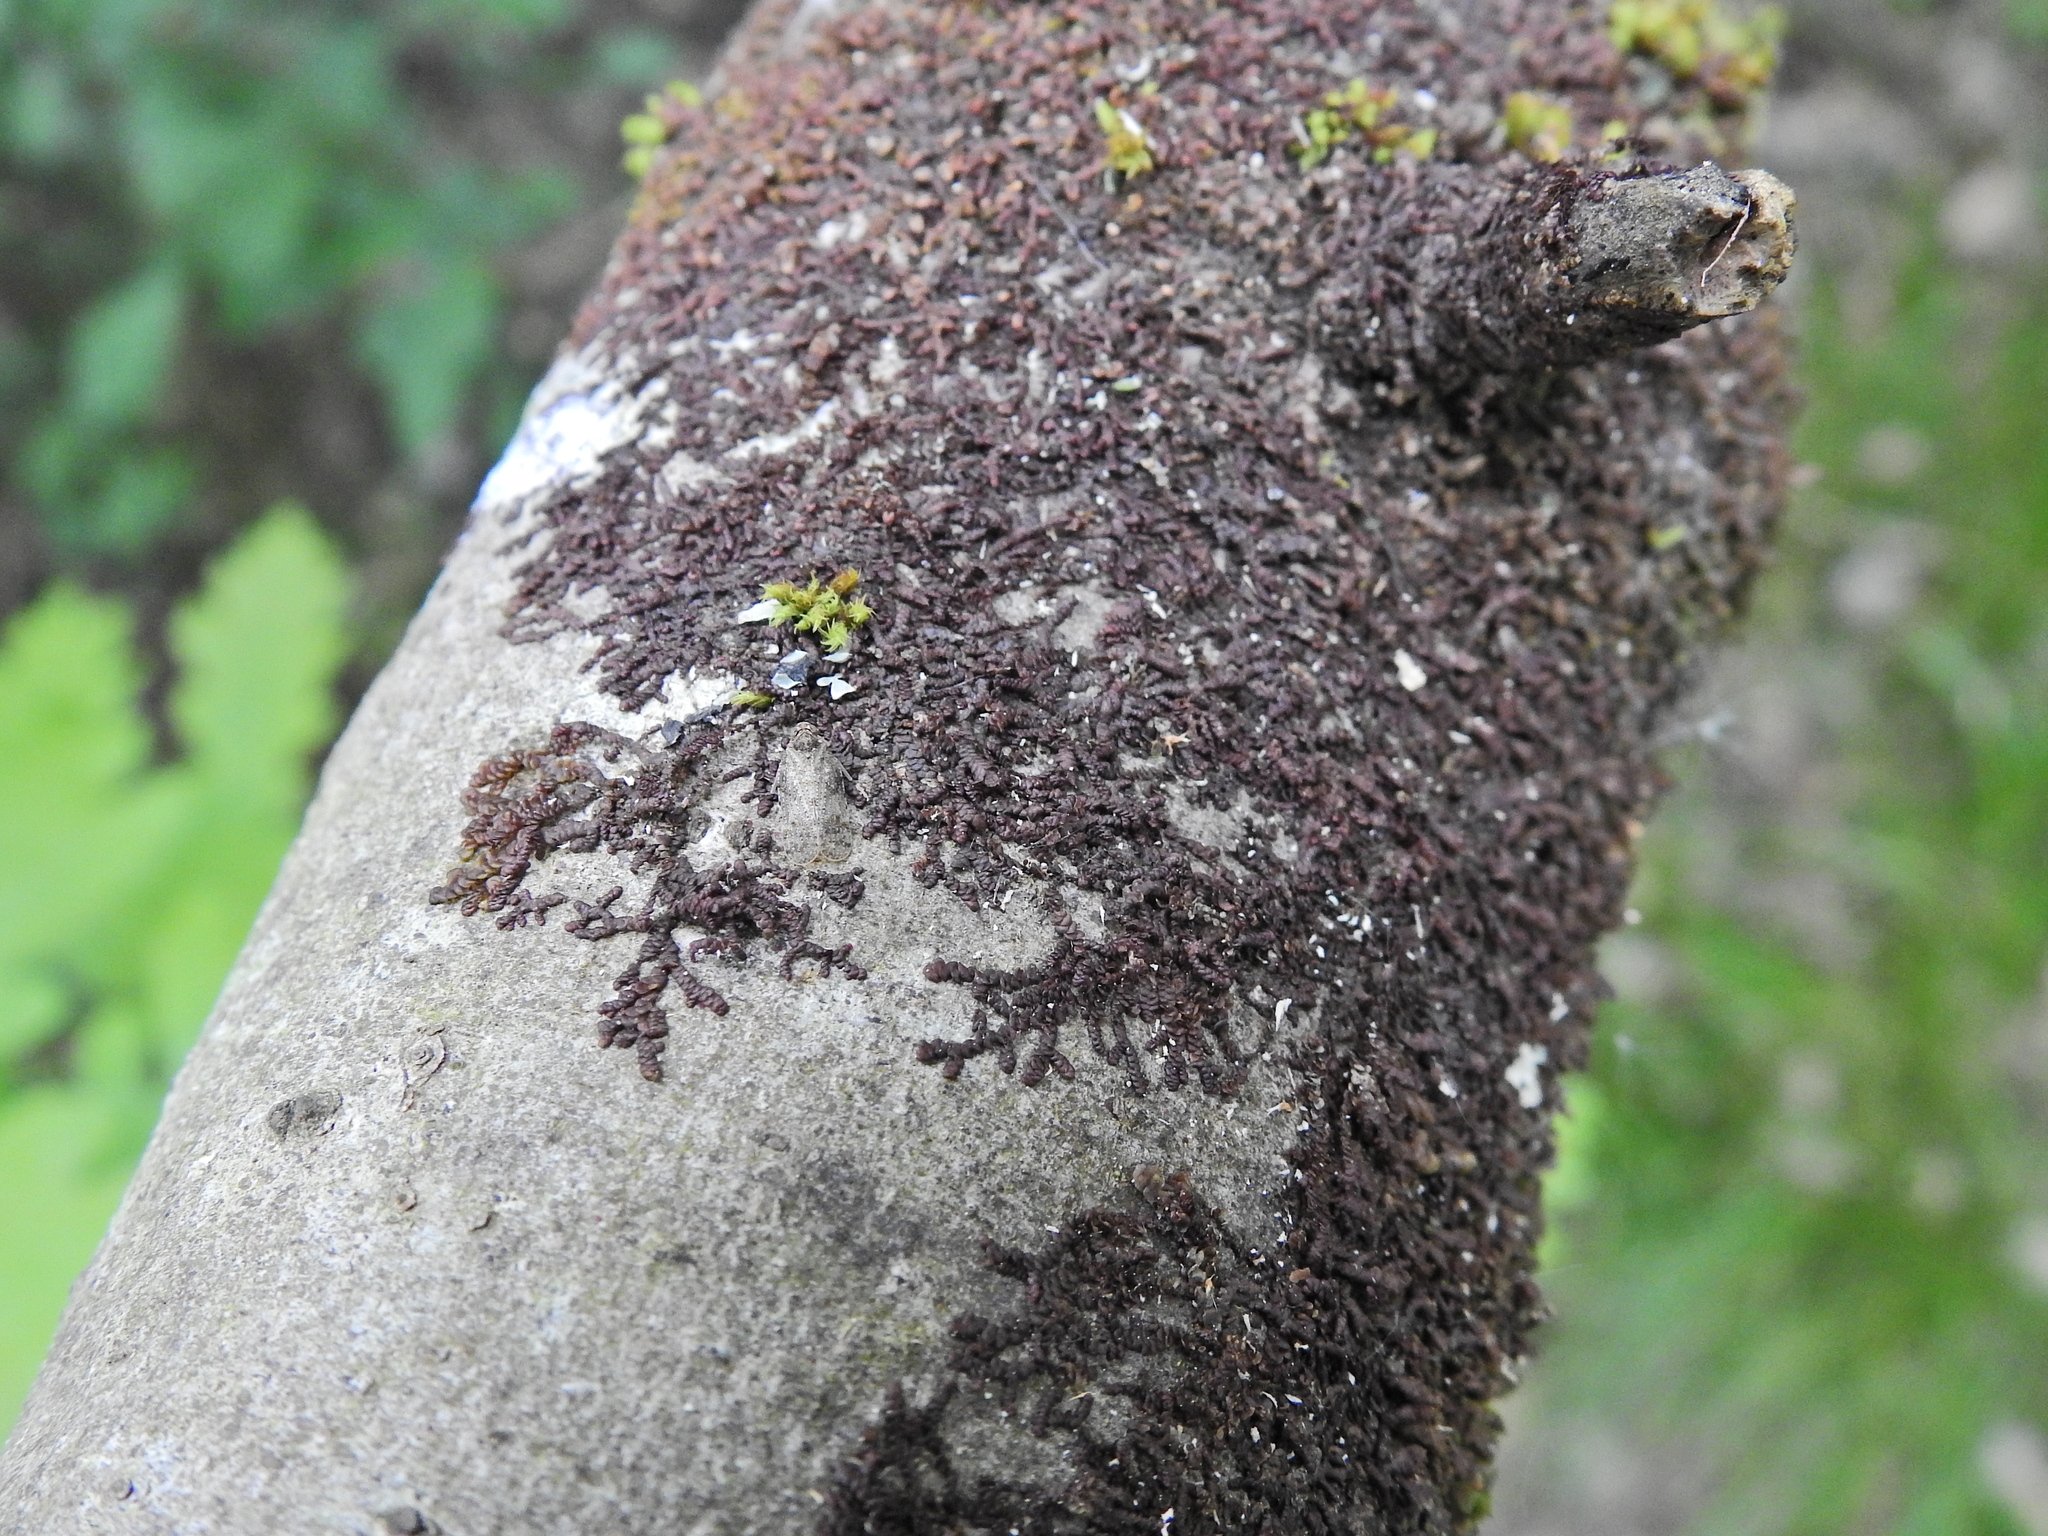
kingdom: Plantae
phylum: Marchantiophyta
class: Jungermanniopsida
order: Porellales
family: Frullaniaceae
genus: Frullania
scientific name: Frullania dilatata
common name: Dilated scalewort
